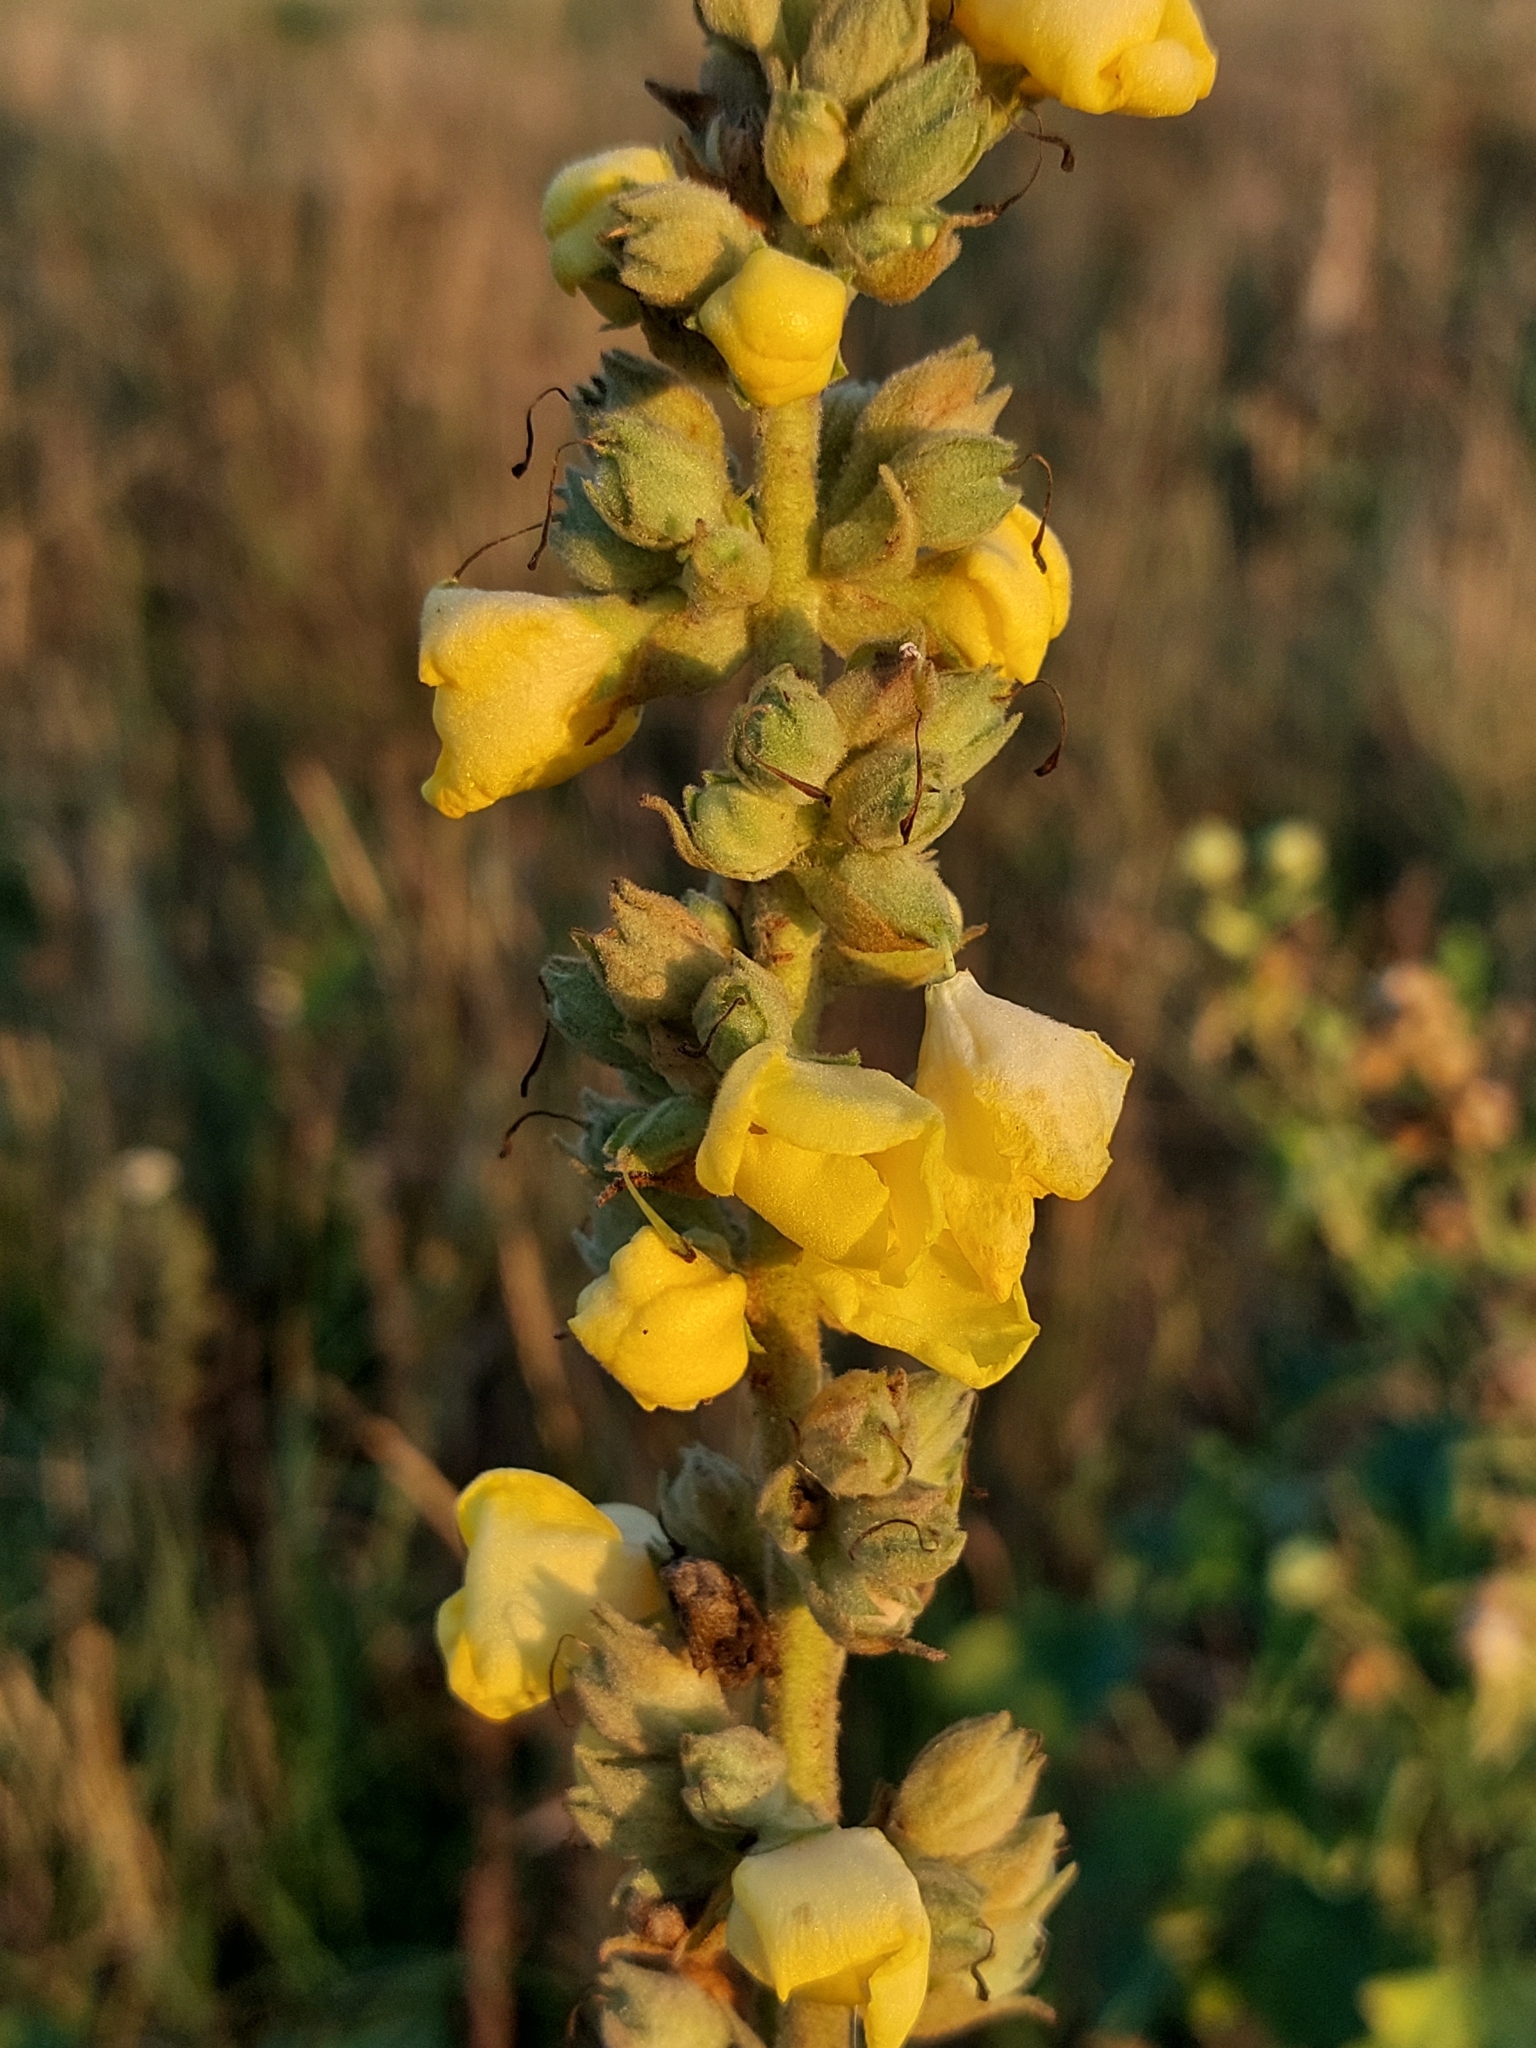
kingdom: Plantae
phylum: Tracheophyta
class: Magnoliopsida
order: Lamiales
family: Scrophulariaceae
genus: Verbascum
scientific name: Verbascum phlomoides
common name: Orange mullein
